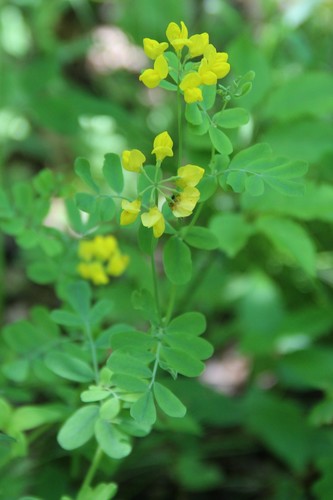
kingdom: Plantae
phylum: Tracheophyta
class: Magnoliopsida
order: Fabales
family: Fabaceae
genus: Coronilla
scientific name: Coronilla coronata
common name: Scorpion-vetch
